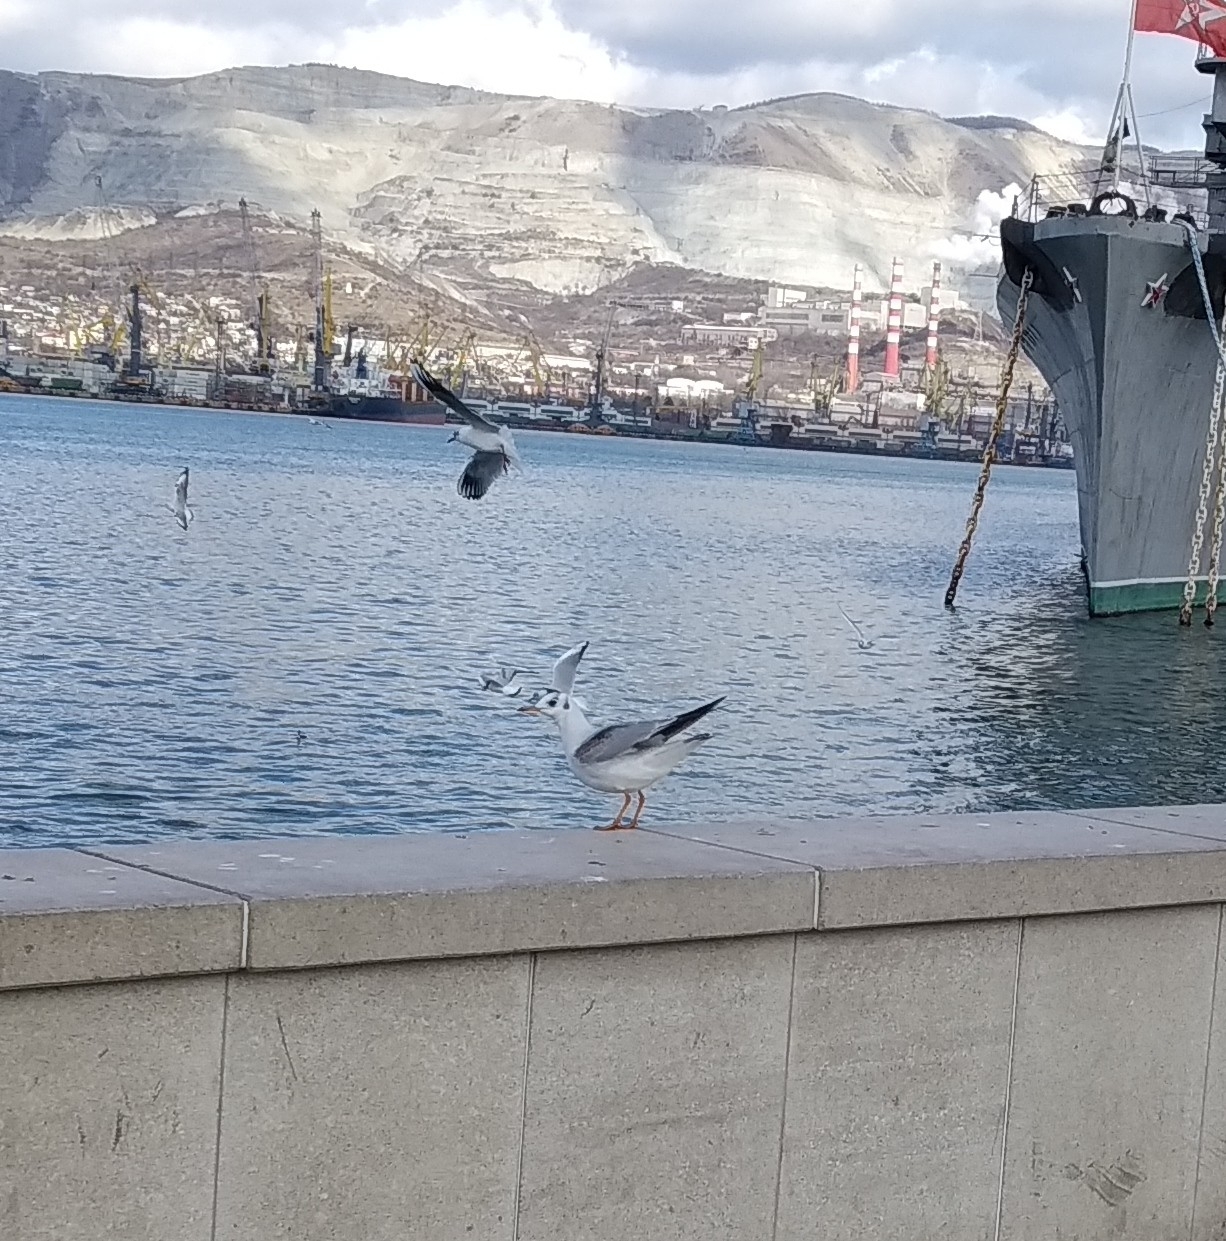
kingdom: Animalia
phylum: Chordata
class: Aves
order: Charadriiformes
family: Laridae
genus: Chroicocephalus
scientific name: Chroicocephalus ridibundus
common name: Black-headed gull
